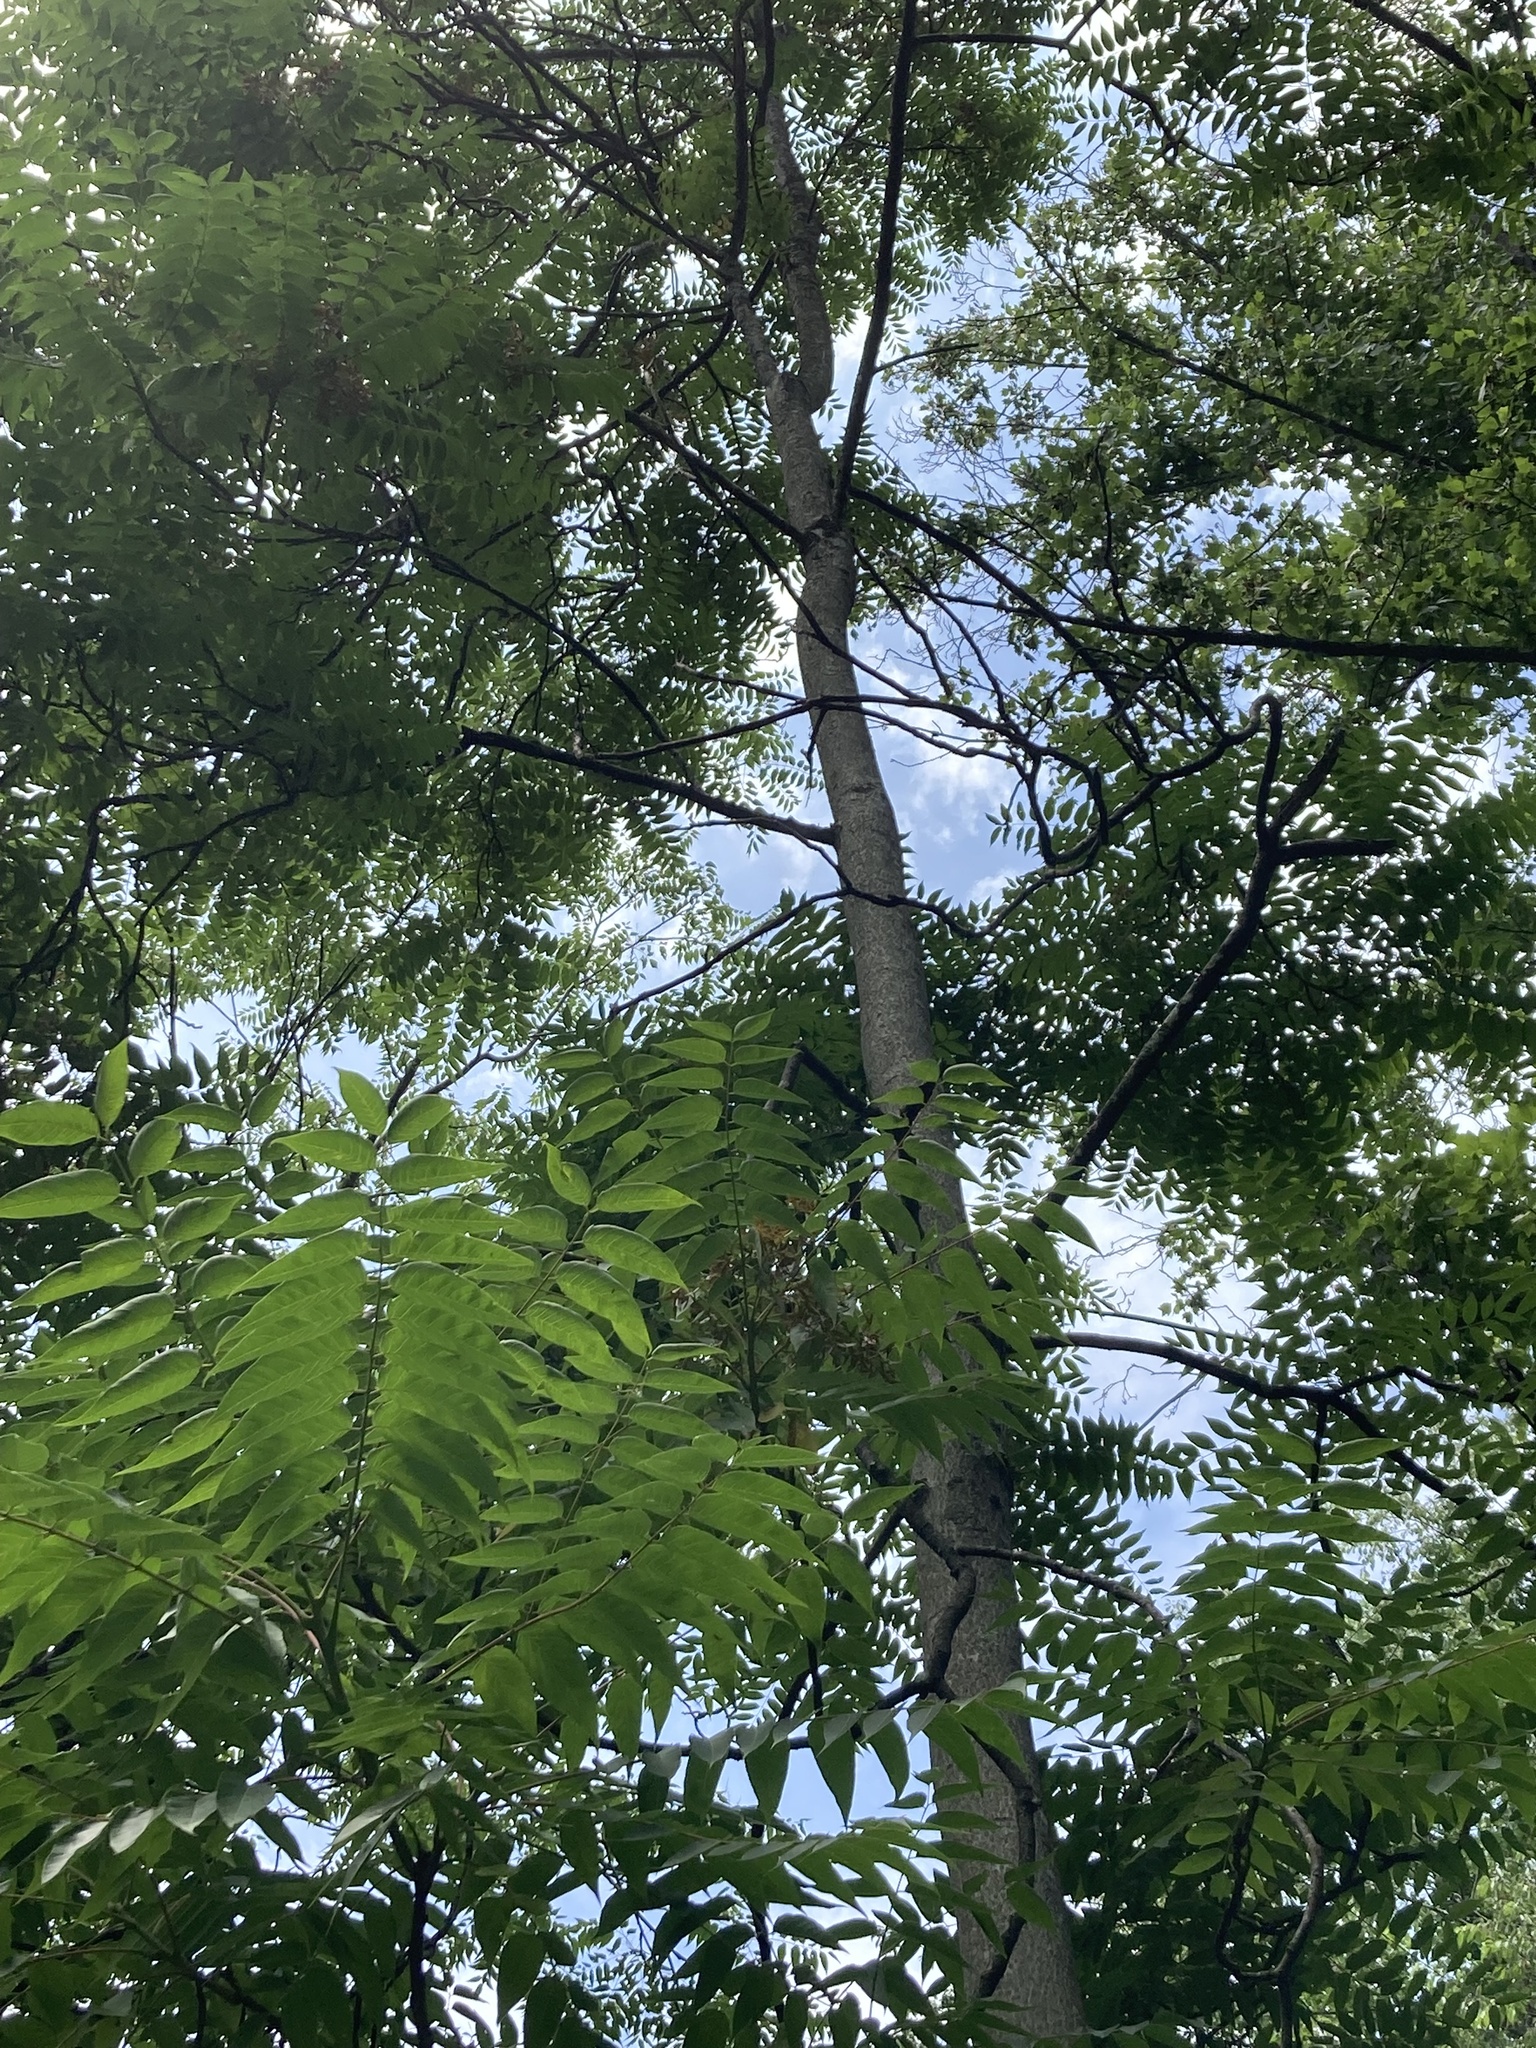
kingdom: Plantae
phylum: Tracheophyta
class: Magnoliopsida
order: Sapindales
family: Simaroubaceae
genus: Ailanthus
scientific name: Ailanthus altissima
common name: Tree-of-heaven
